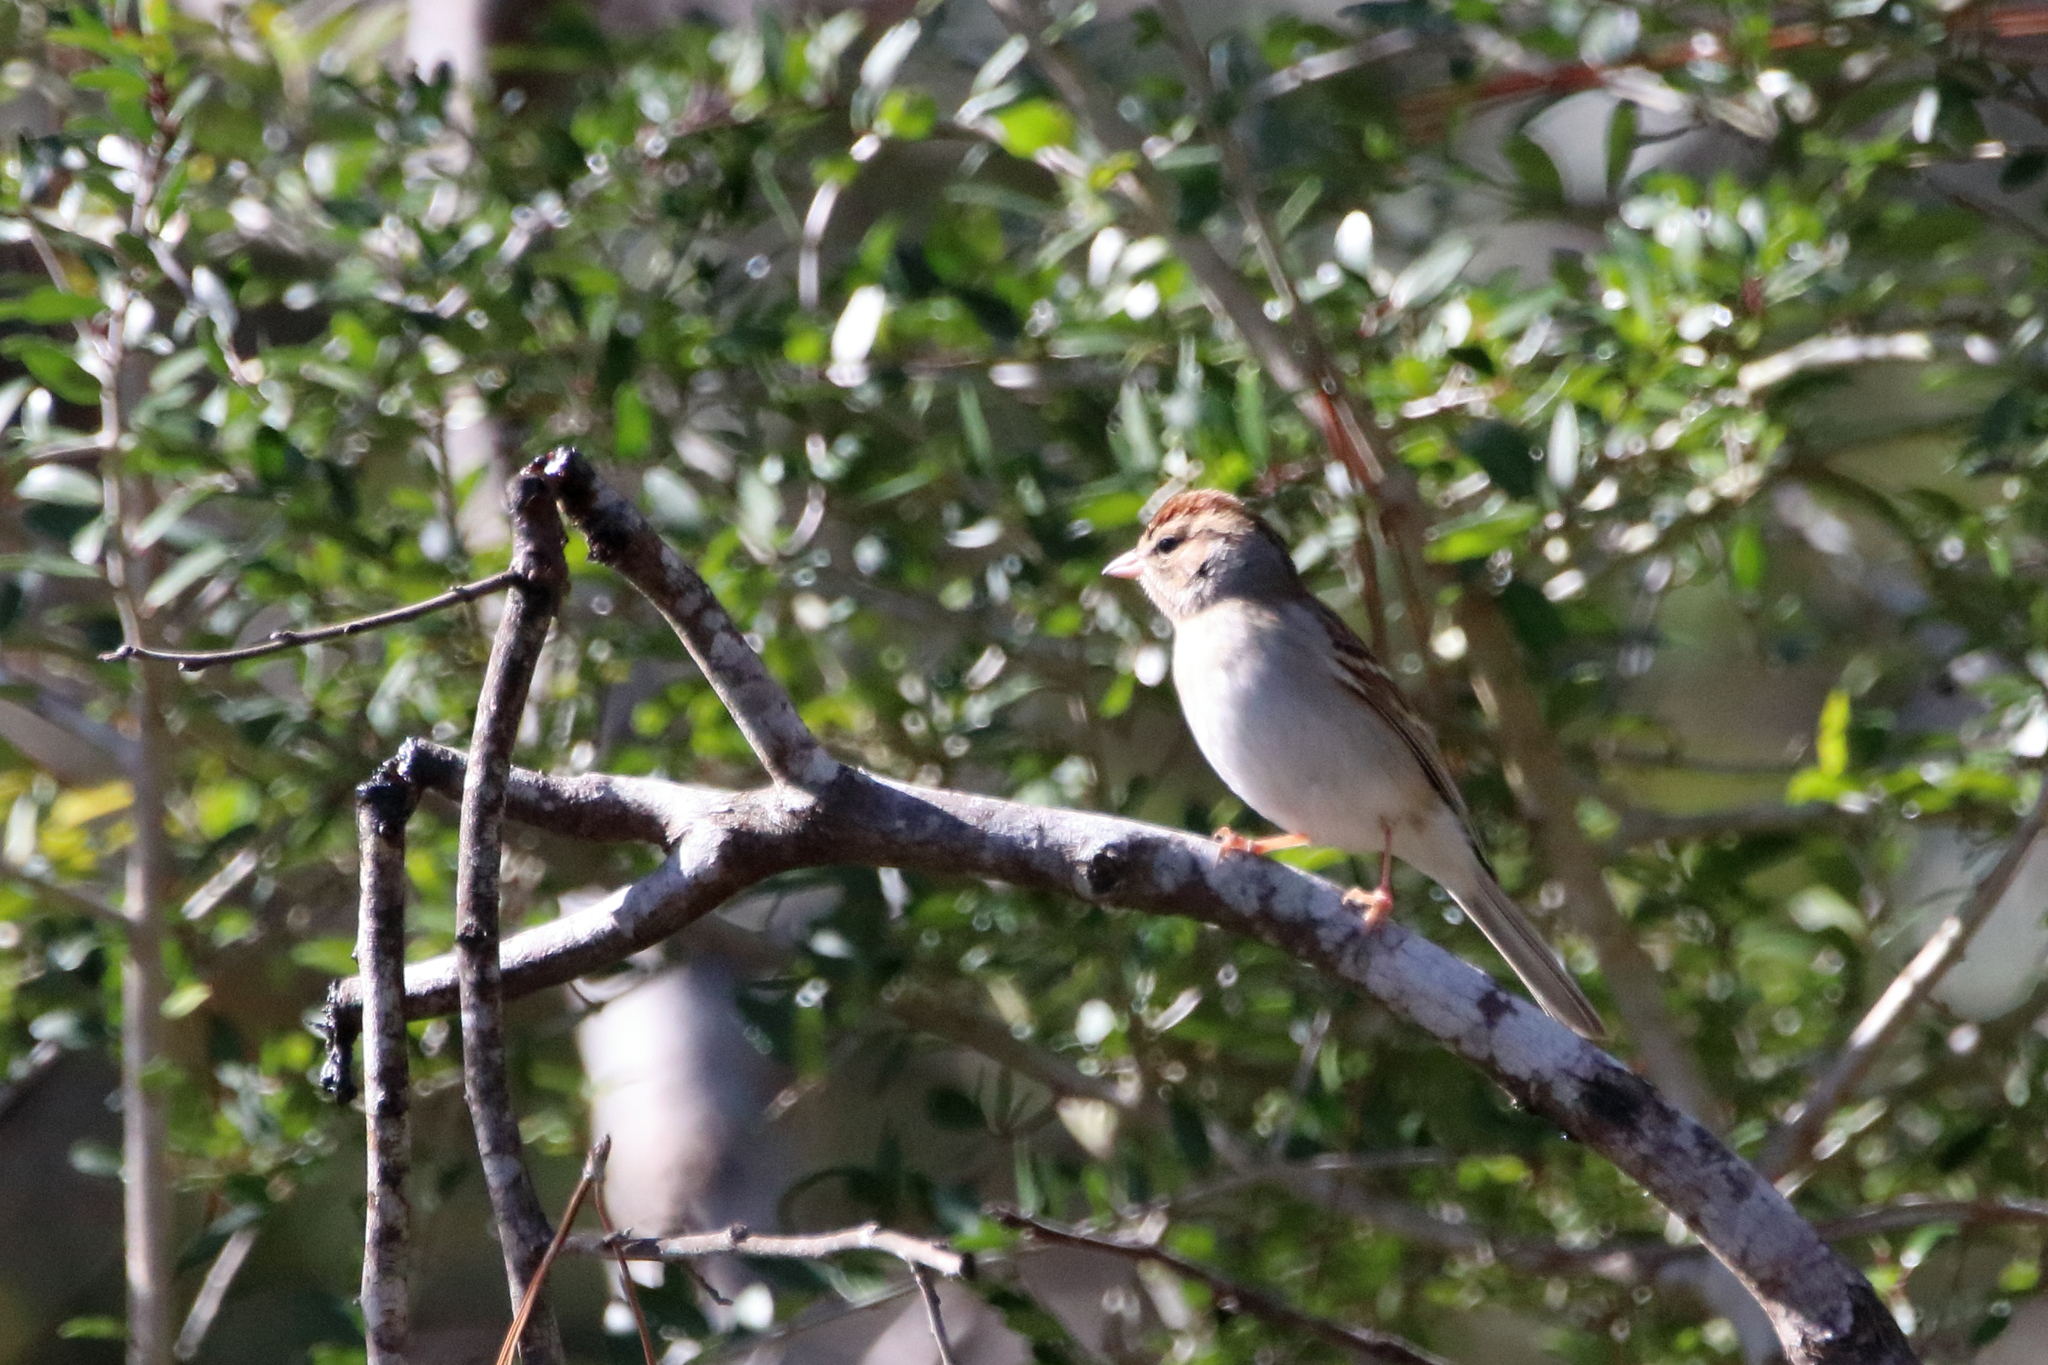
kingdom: Animalia
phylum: Chordata
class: Aves
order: Passeriformes
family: Passerellidae
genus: Spizella
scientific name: Spizella passerina
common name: Chipping sparrow
